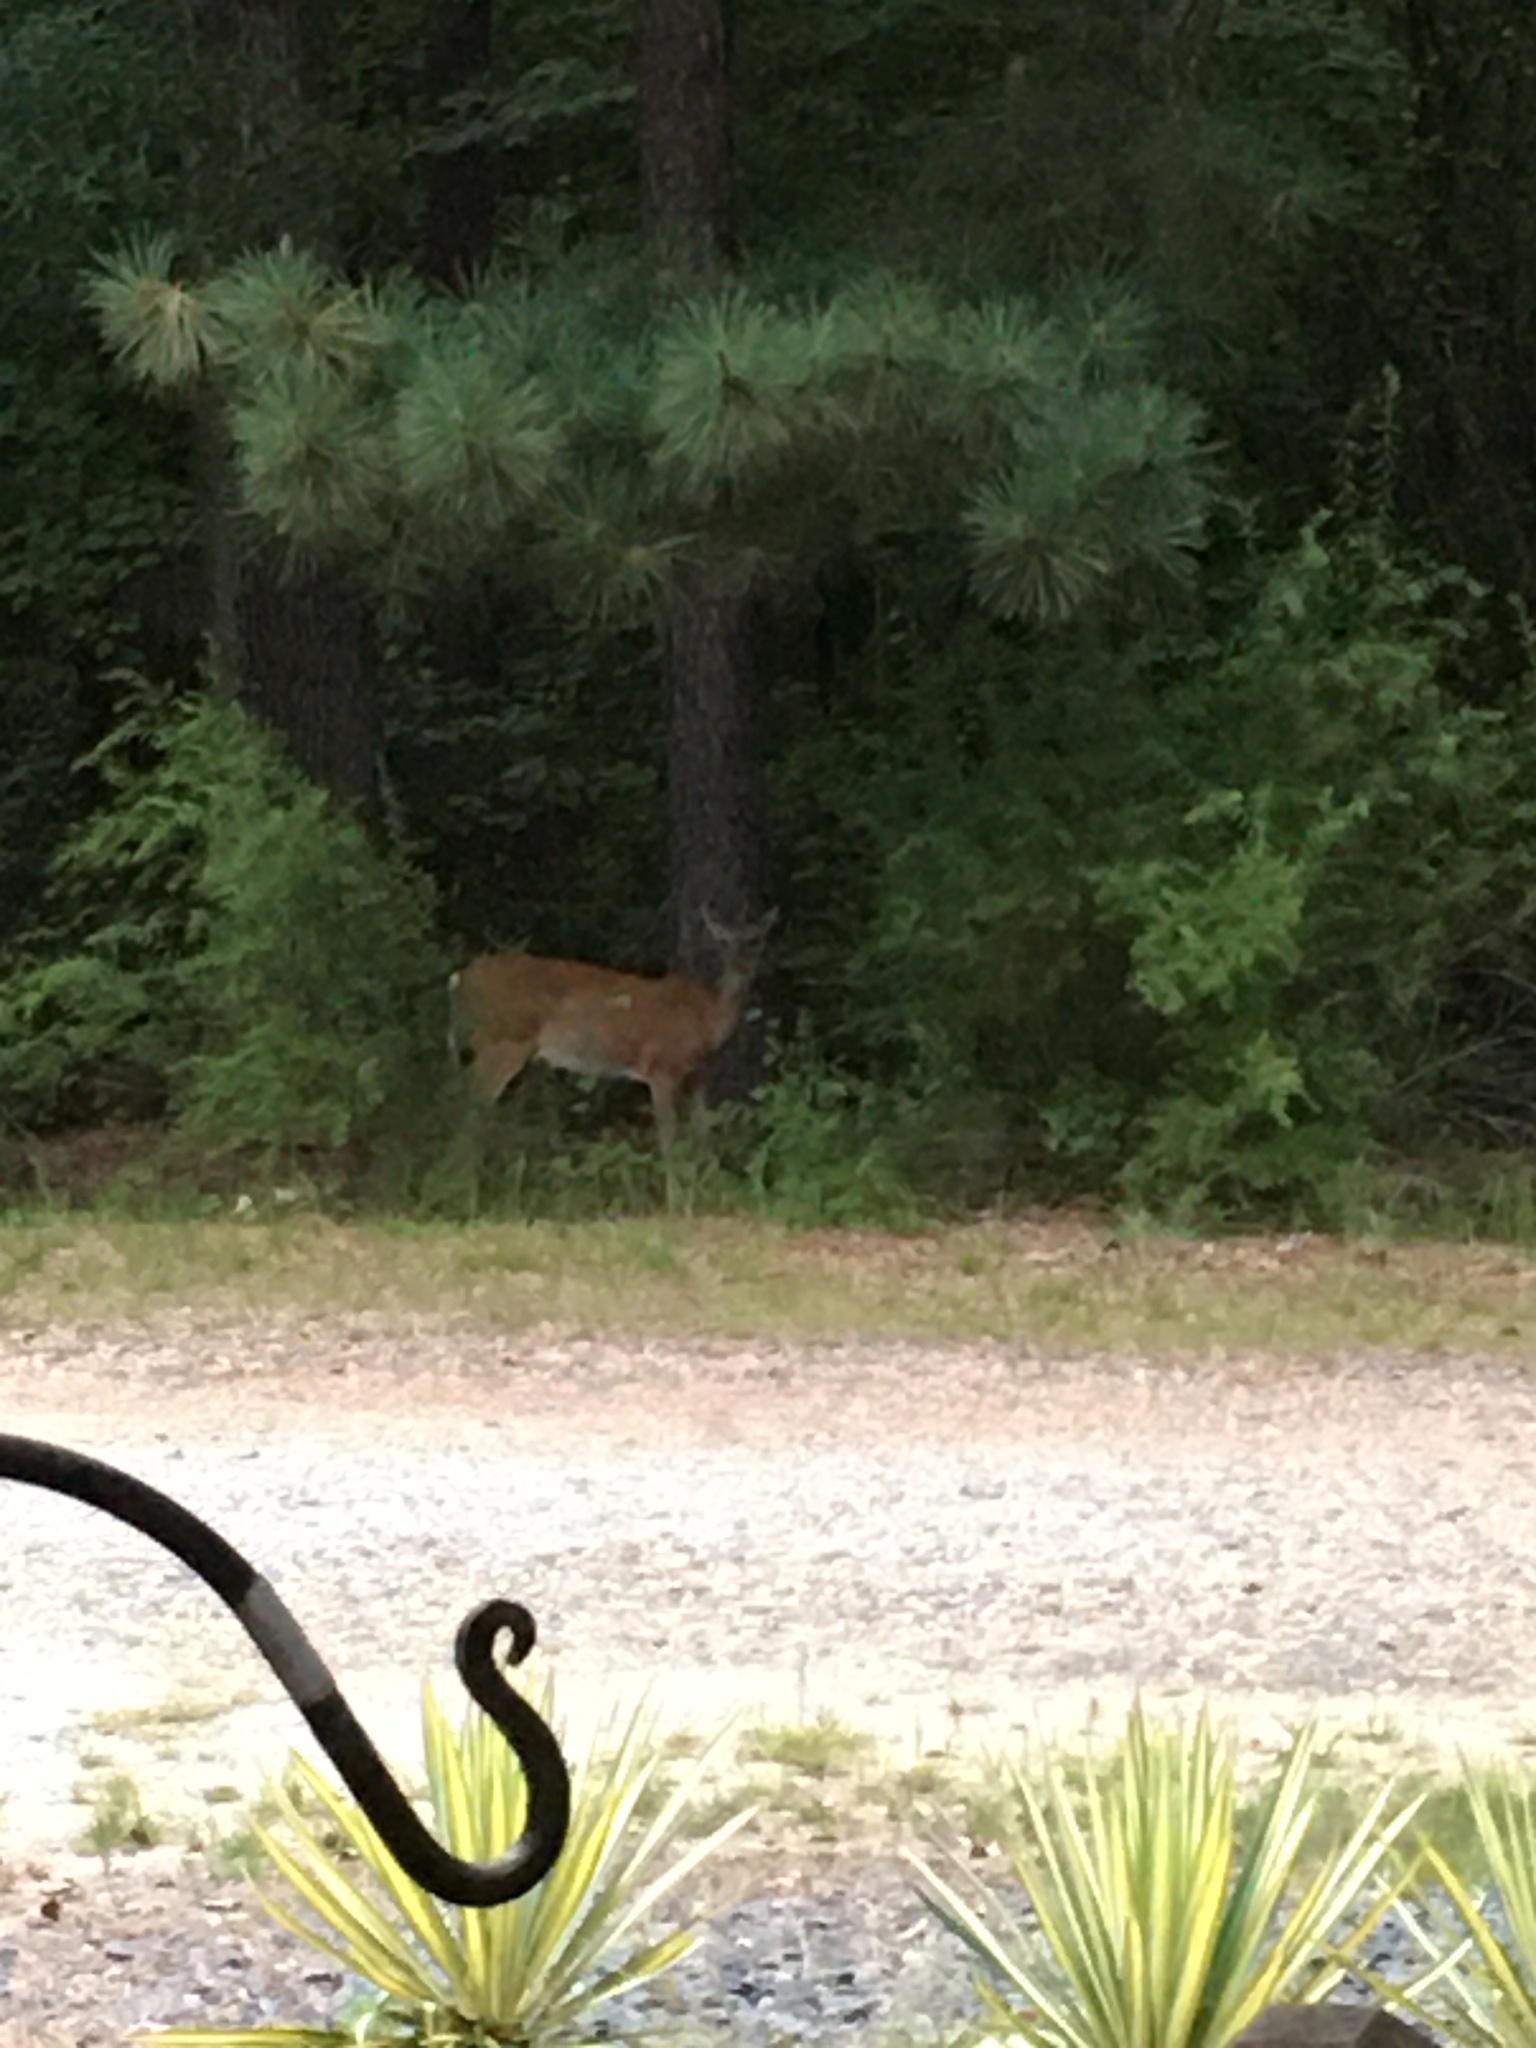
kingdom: Animalia
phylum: Chordata
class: Mammalia
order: Artiodactyla
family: Cervidae
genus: Odocoileus
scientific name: Odocoileus virginianus
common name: White-tailed deer
